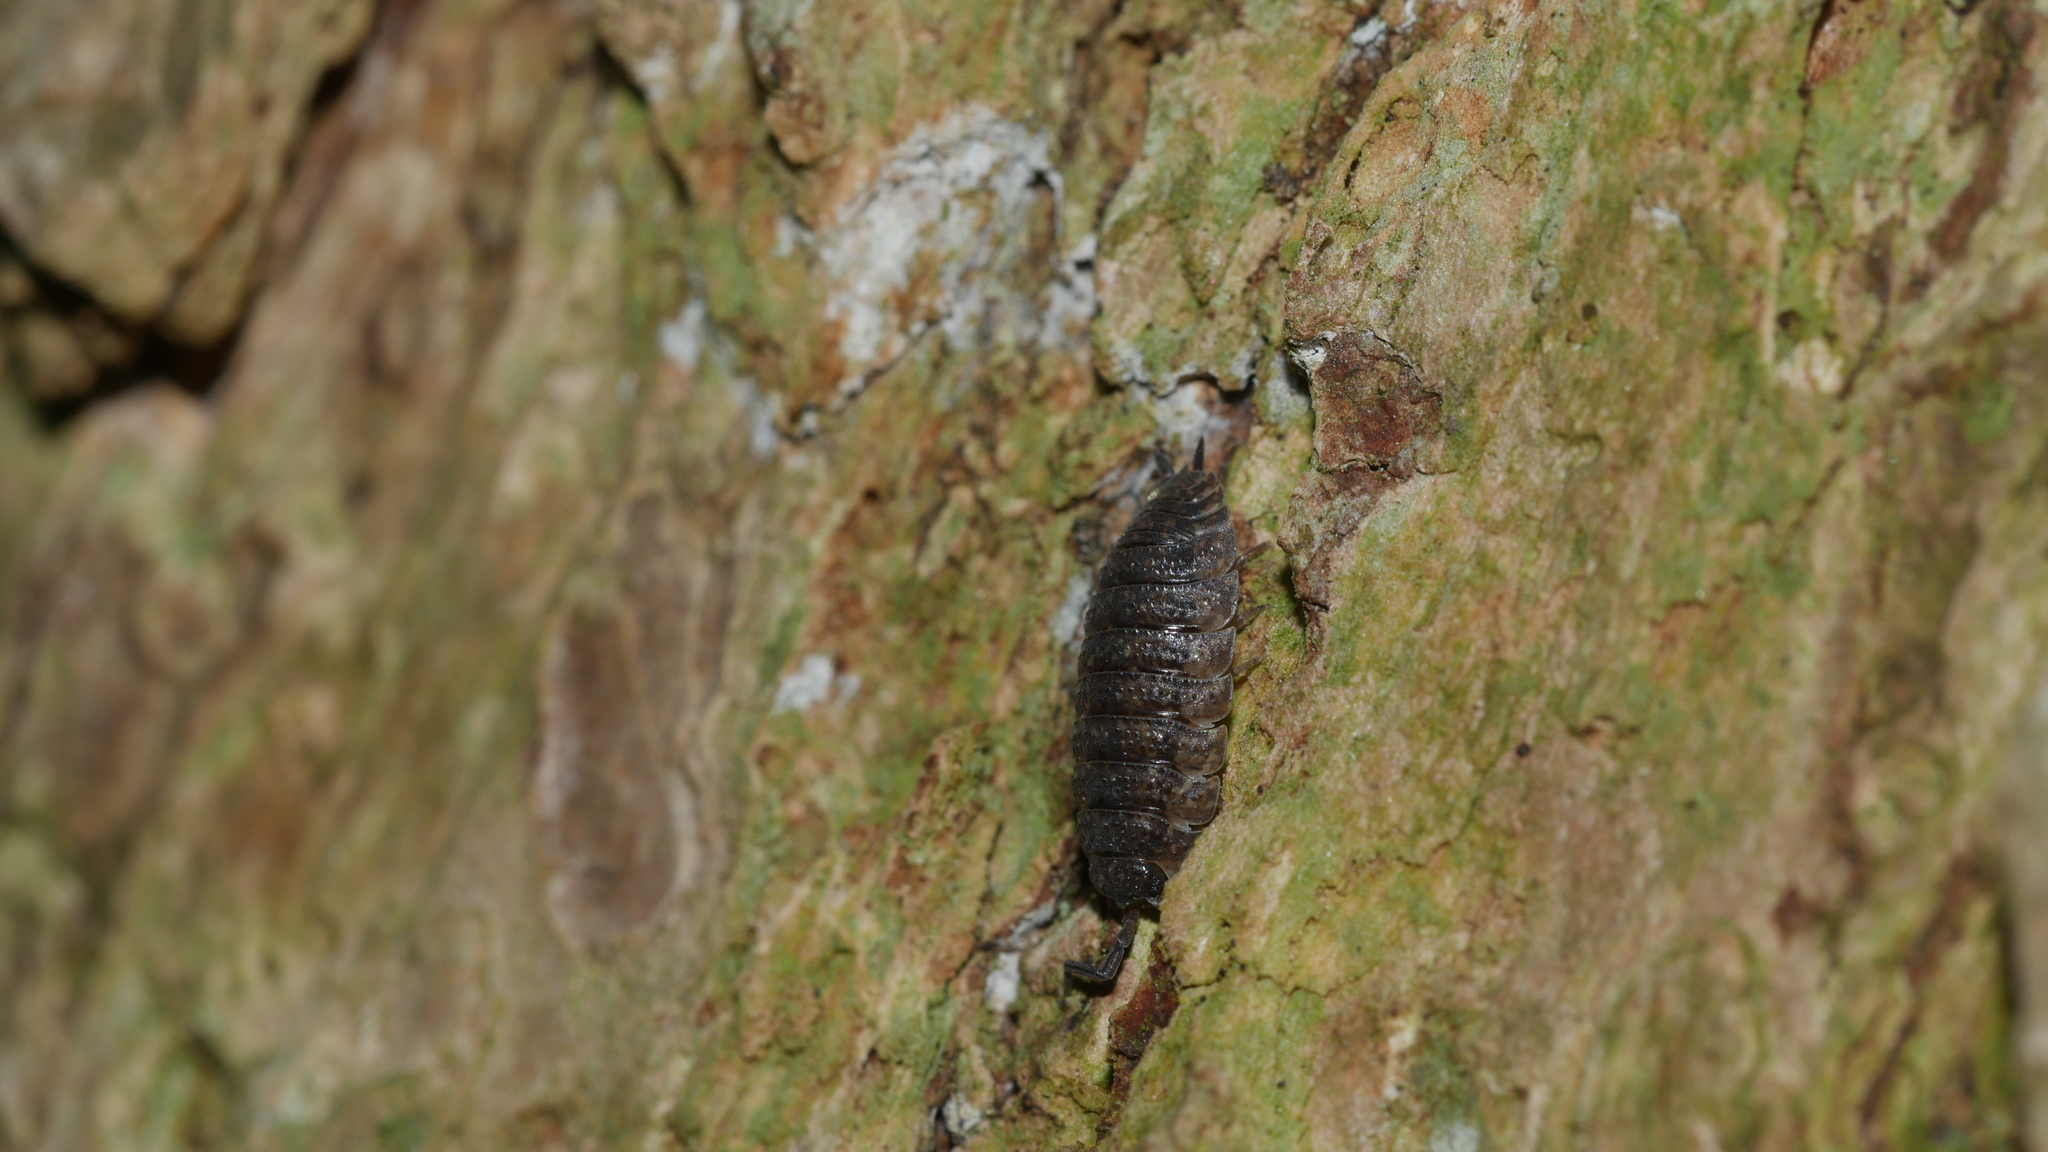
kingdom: Animalia
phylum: Arthropoda
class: Malacostraca
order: Isopoda
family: Porcellionidae
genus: Porcellio
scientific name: Porcellio scaber
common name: Common rough woodlouse
